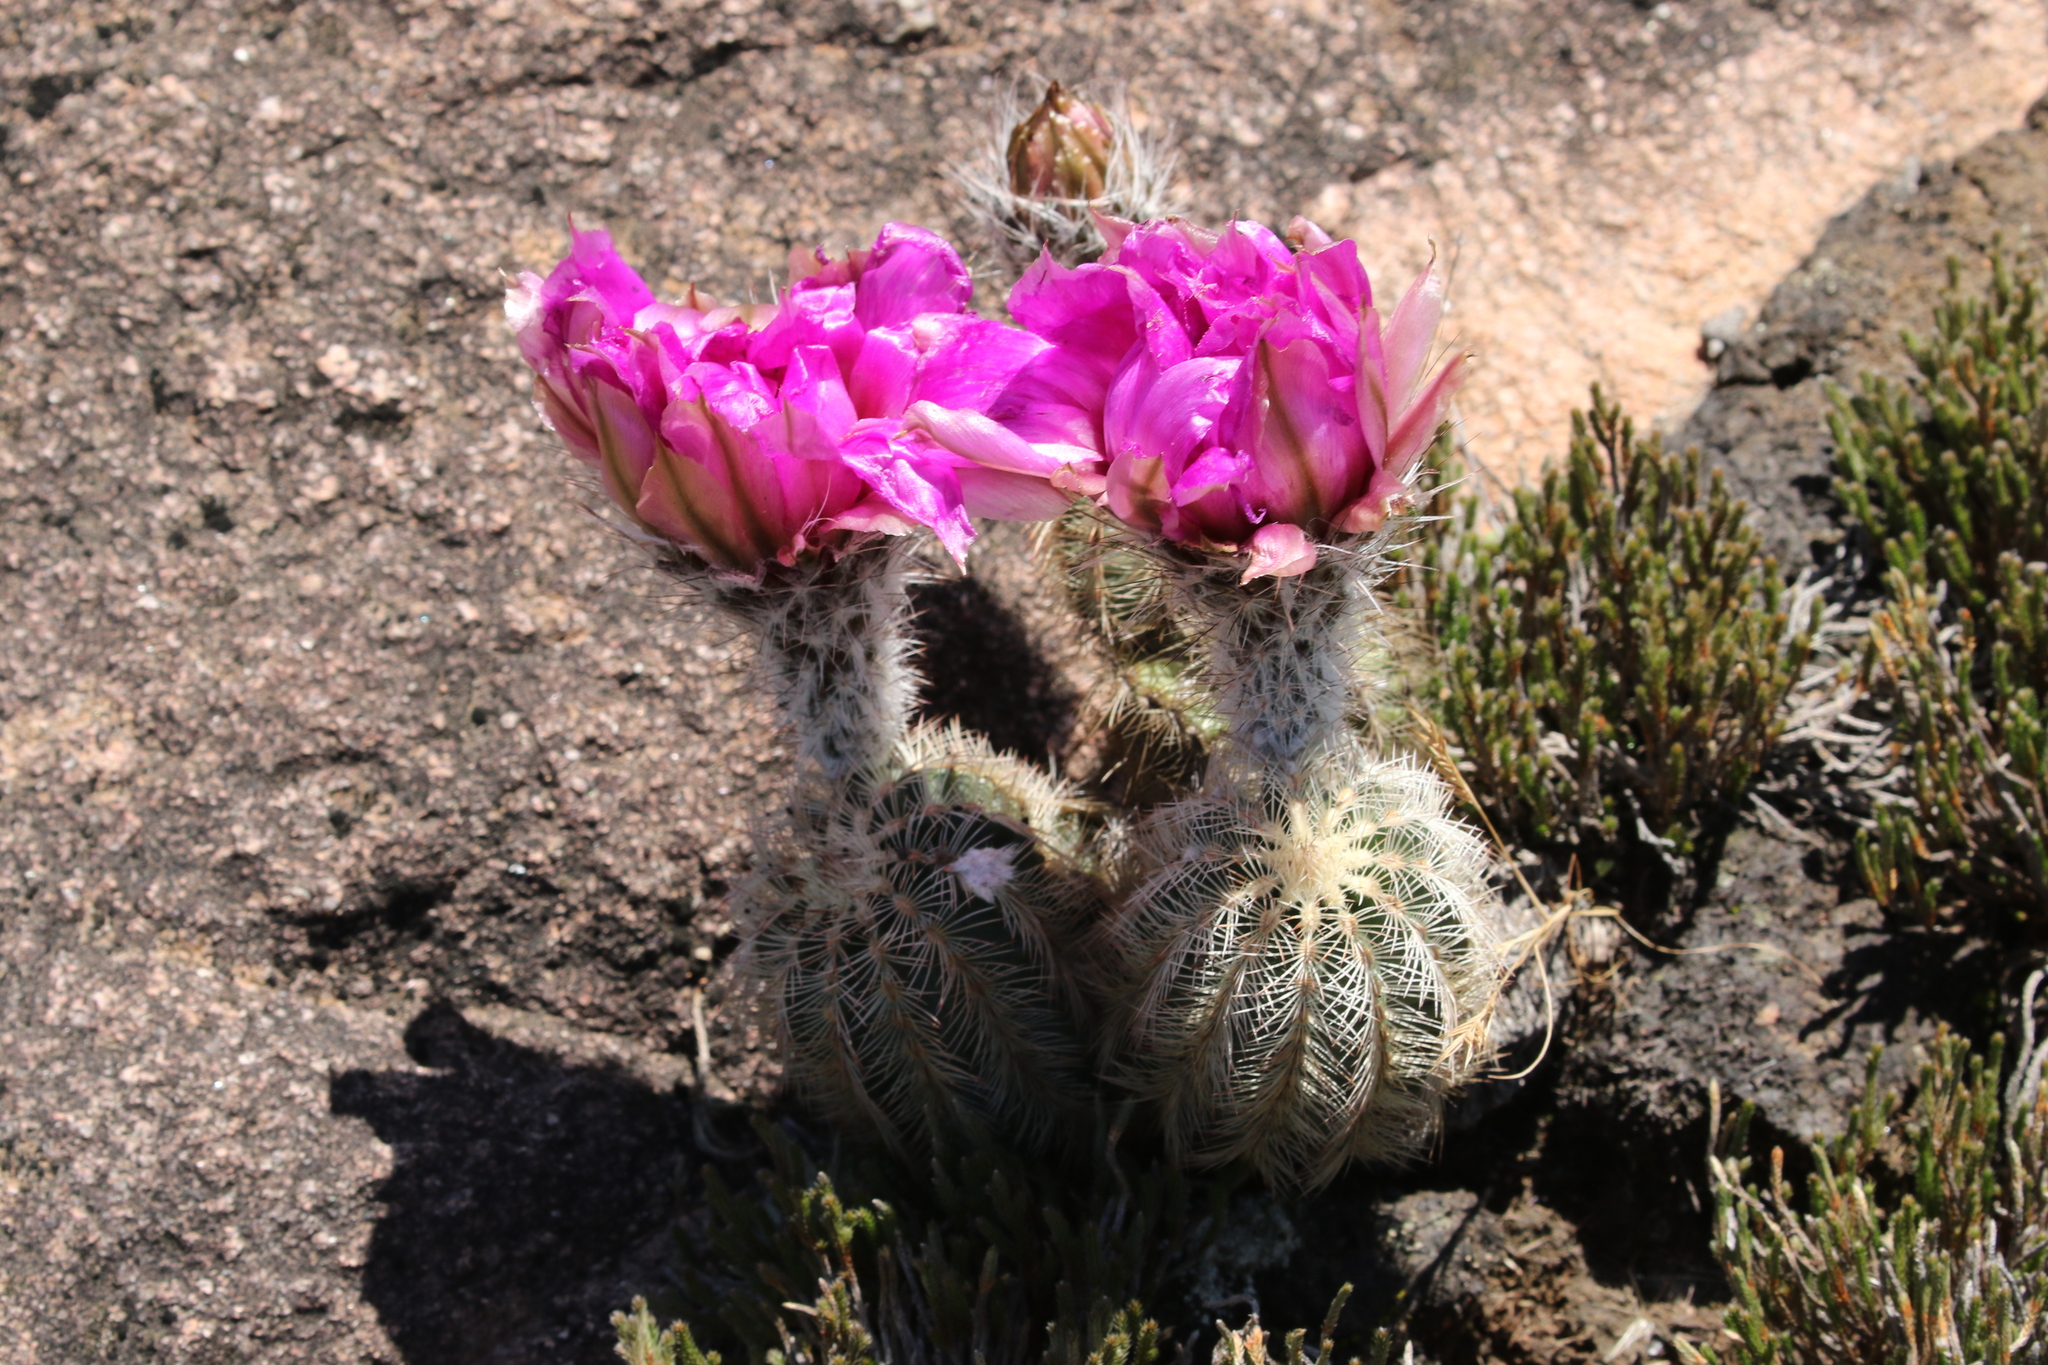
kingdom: Plantae
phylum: Tracheophyta
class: Magnoliopsida
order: Caryophyllales
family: Cactaceae
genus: Echinocereus
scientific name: Echinocereus reichenbachii
